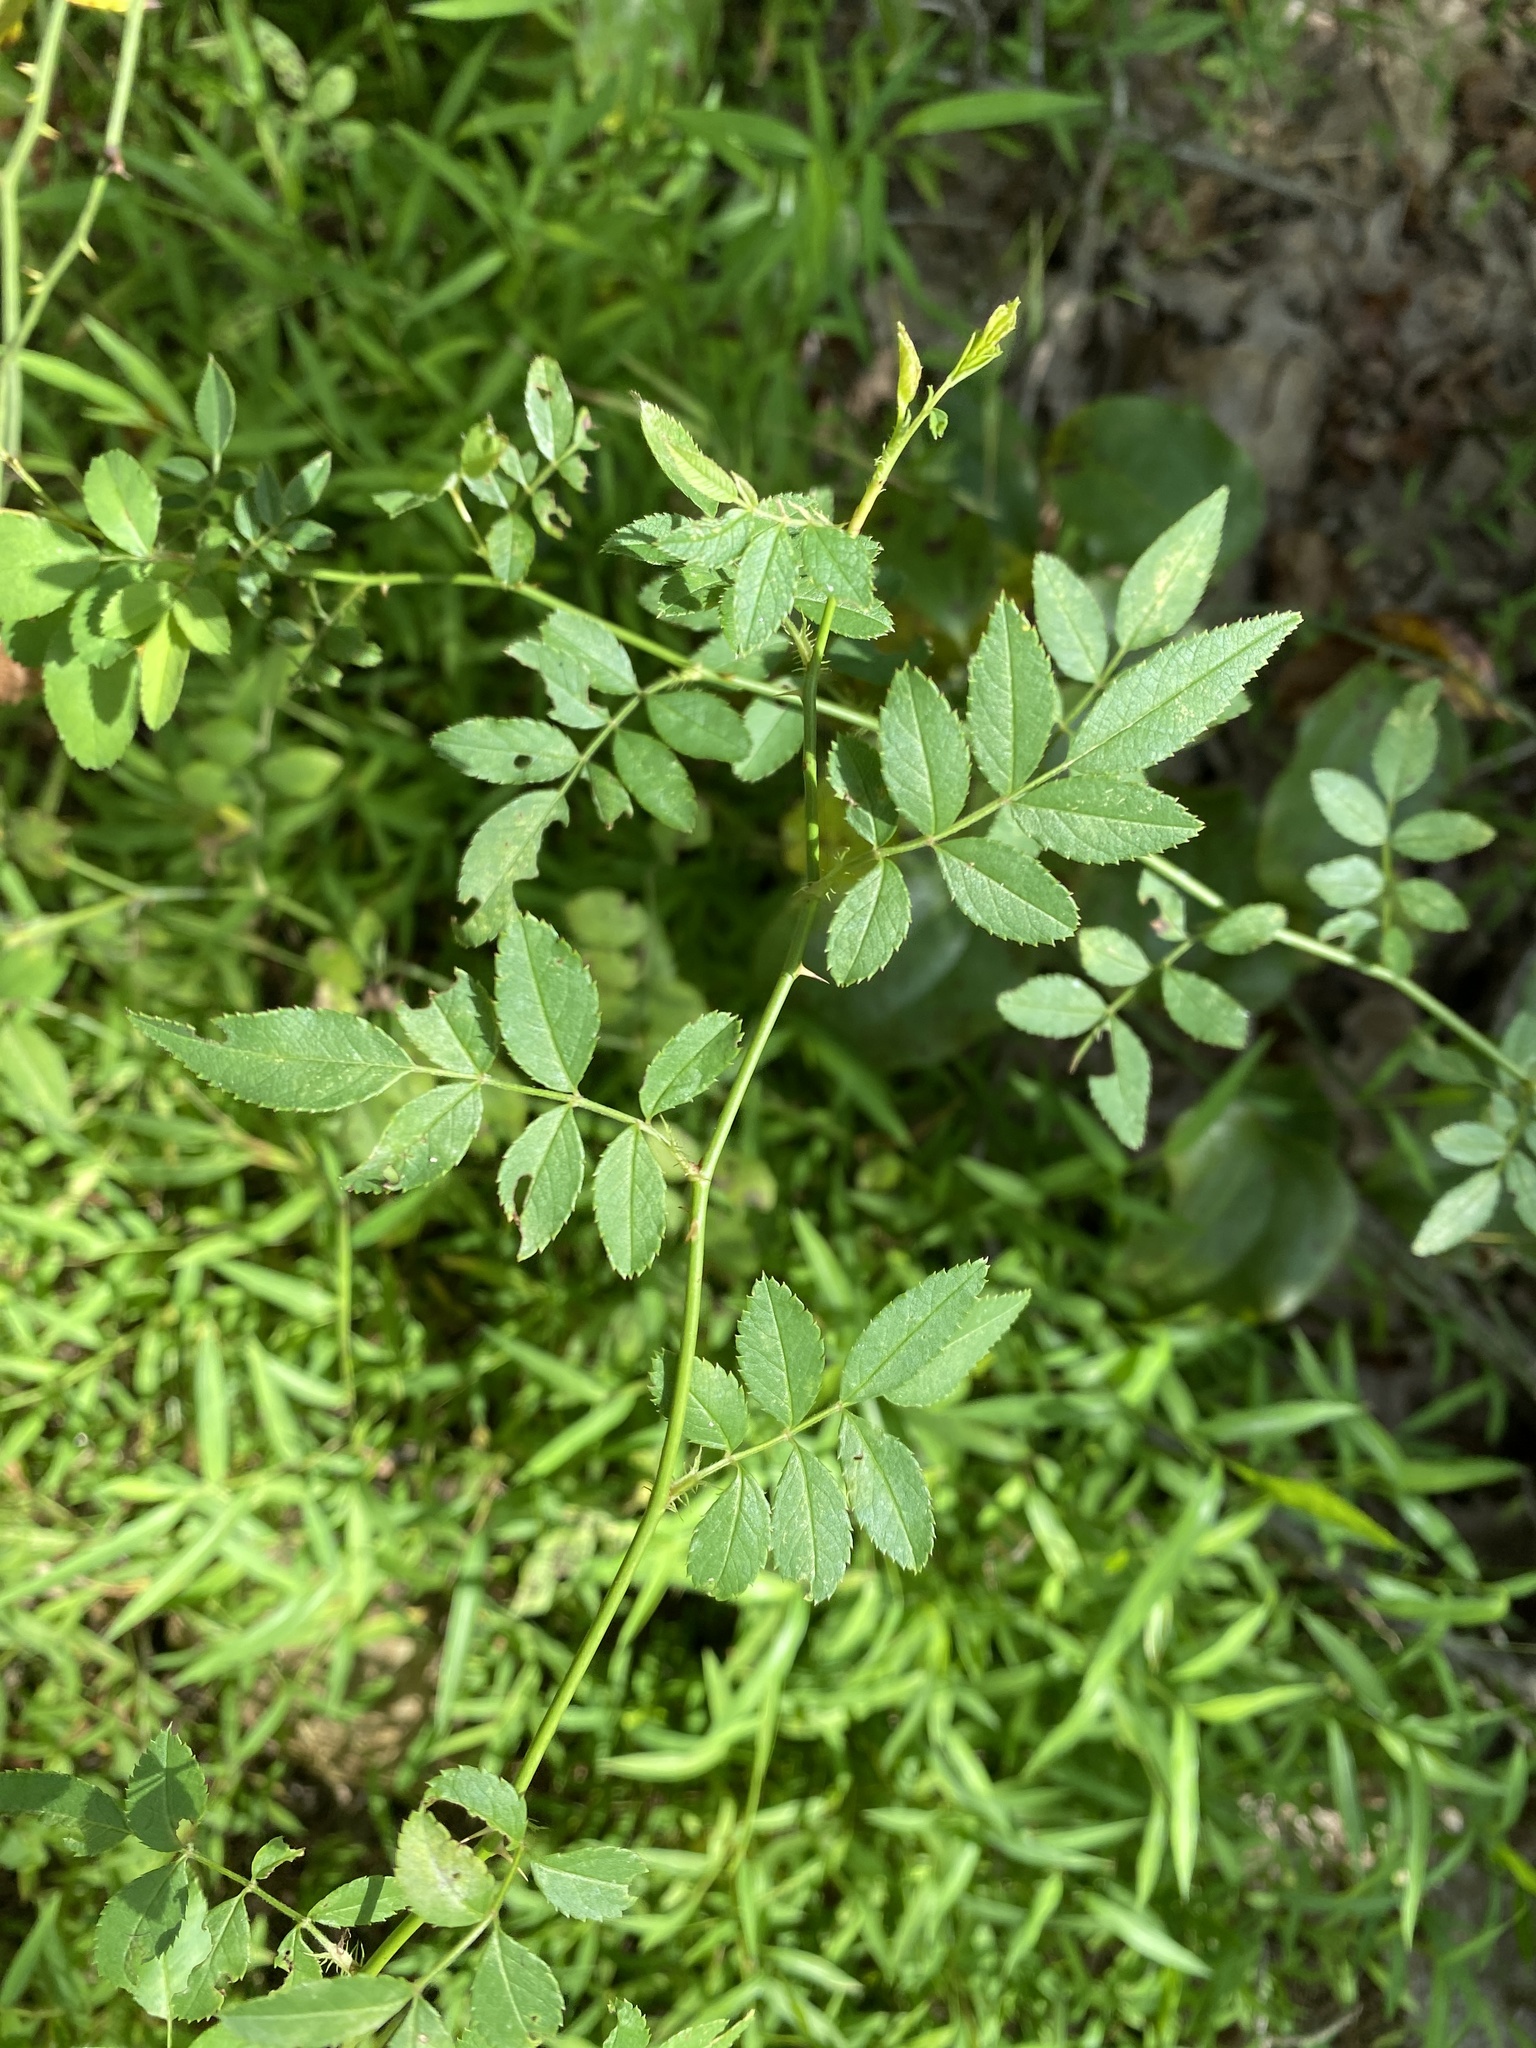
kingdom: Plantae
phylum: Tracheophyta
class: Magnoliopsida
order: Rosales
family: Rosaceae
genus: Rosa
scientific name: Rosa multiflora
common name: Multiflora rose
